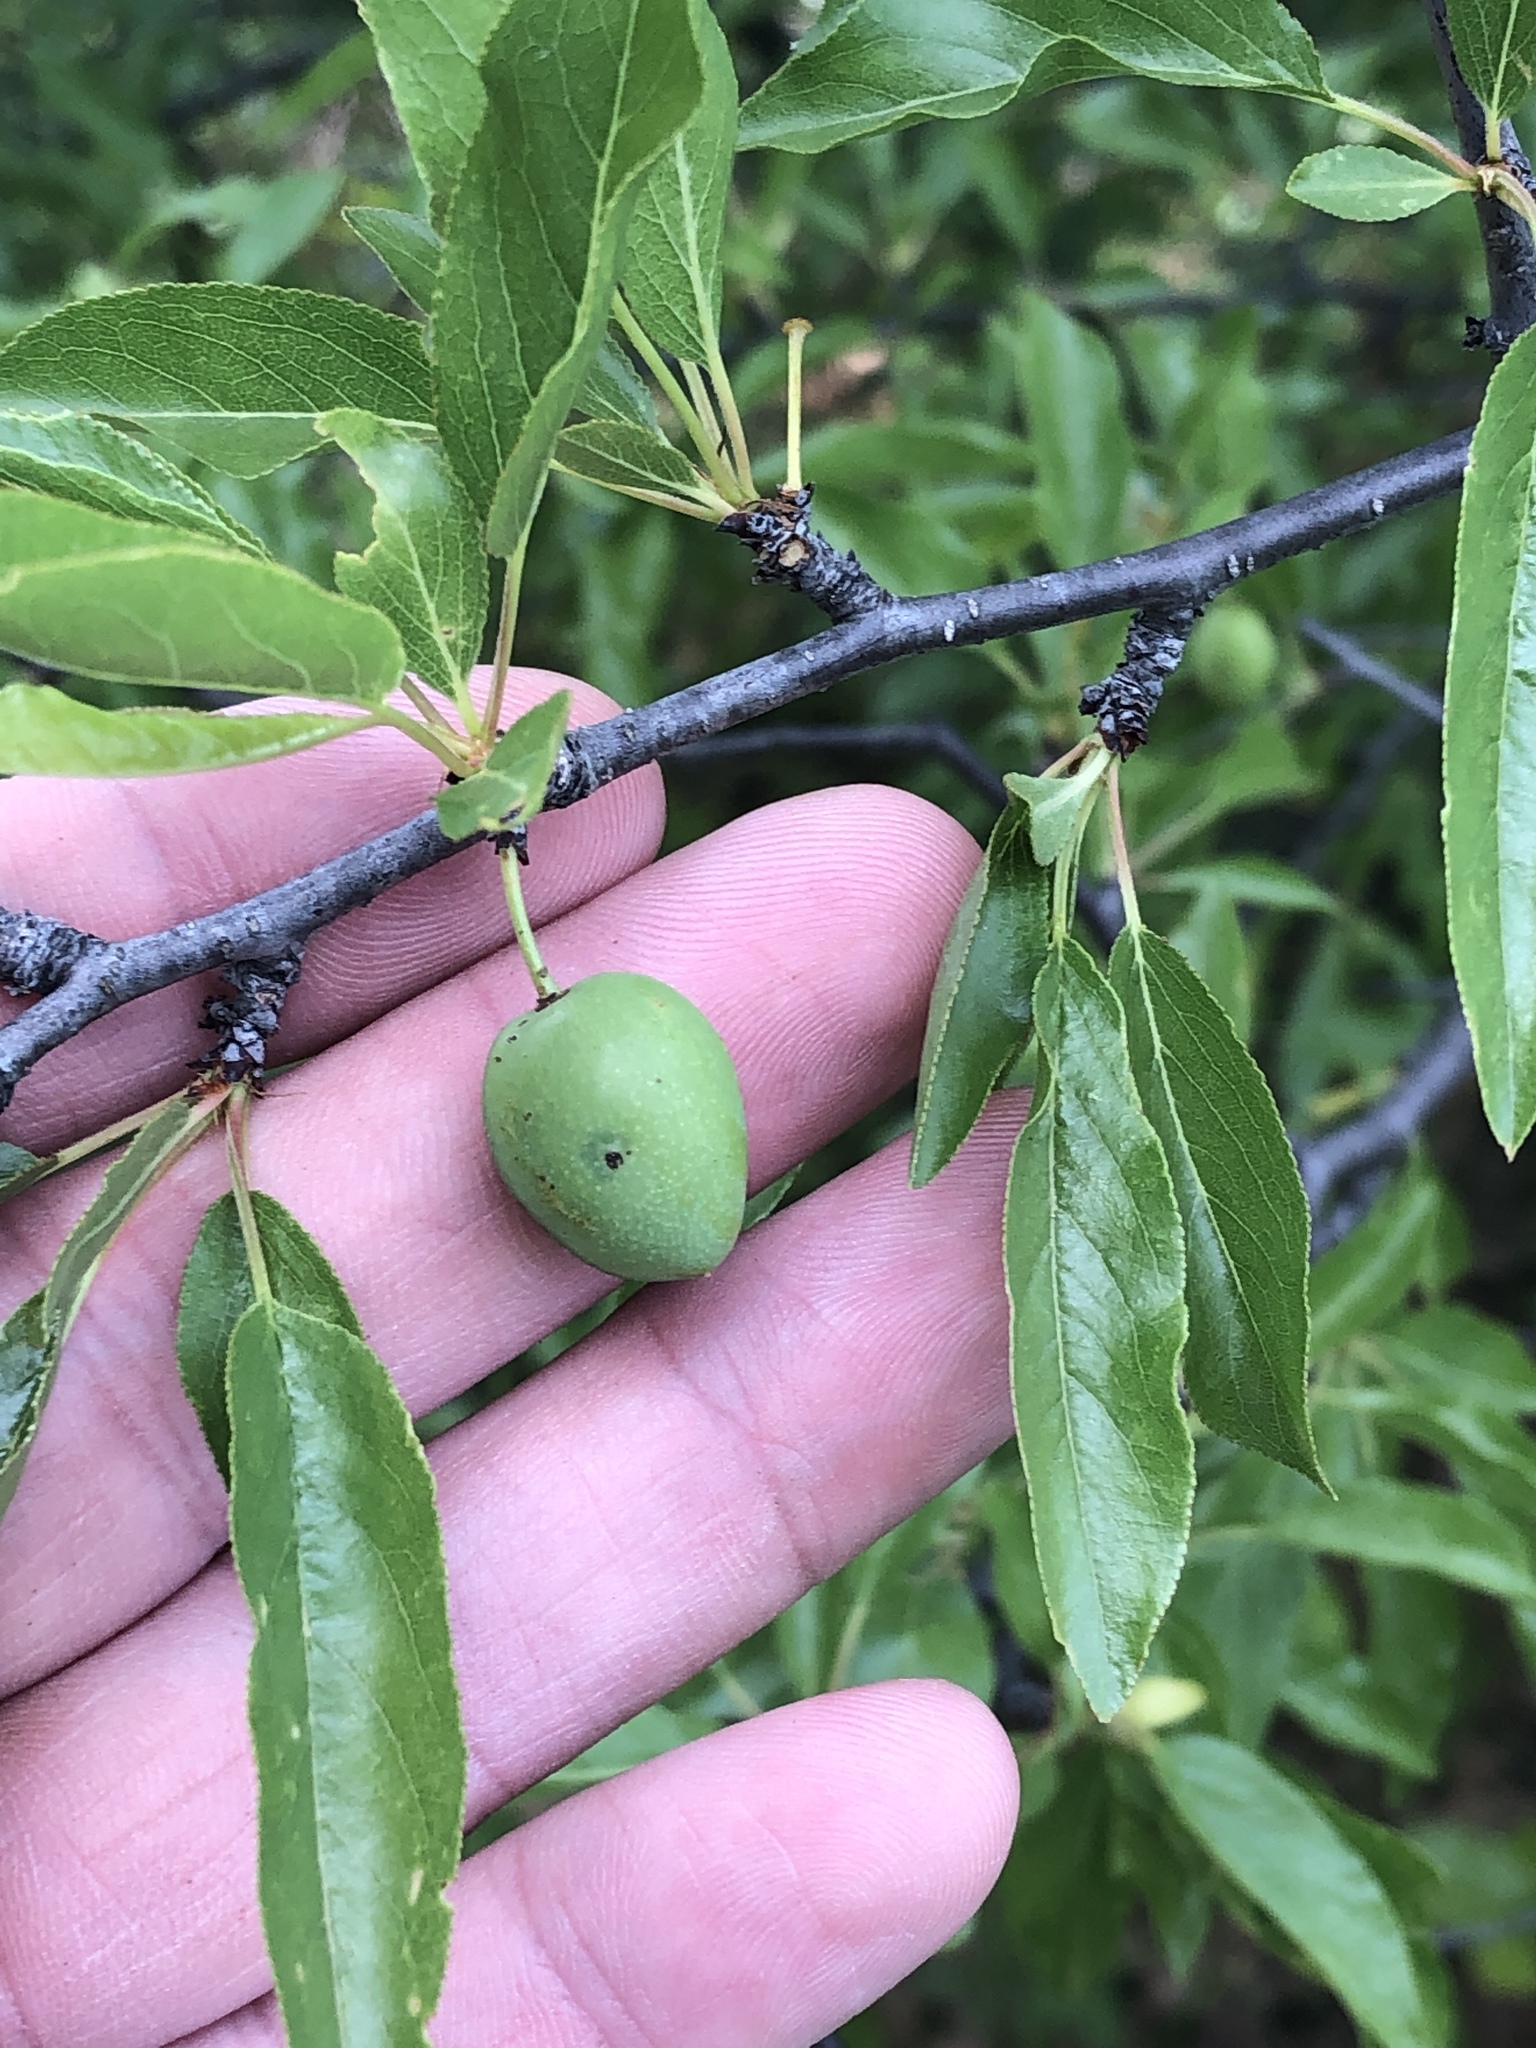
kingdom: Plantae
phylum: Tracheophyta
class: Magnoliopsida
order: Rosales
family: Rosaceae
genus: Prunus
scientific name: Prunus angustifolia
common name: Cherokee plum
